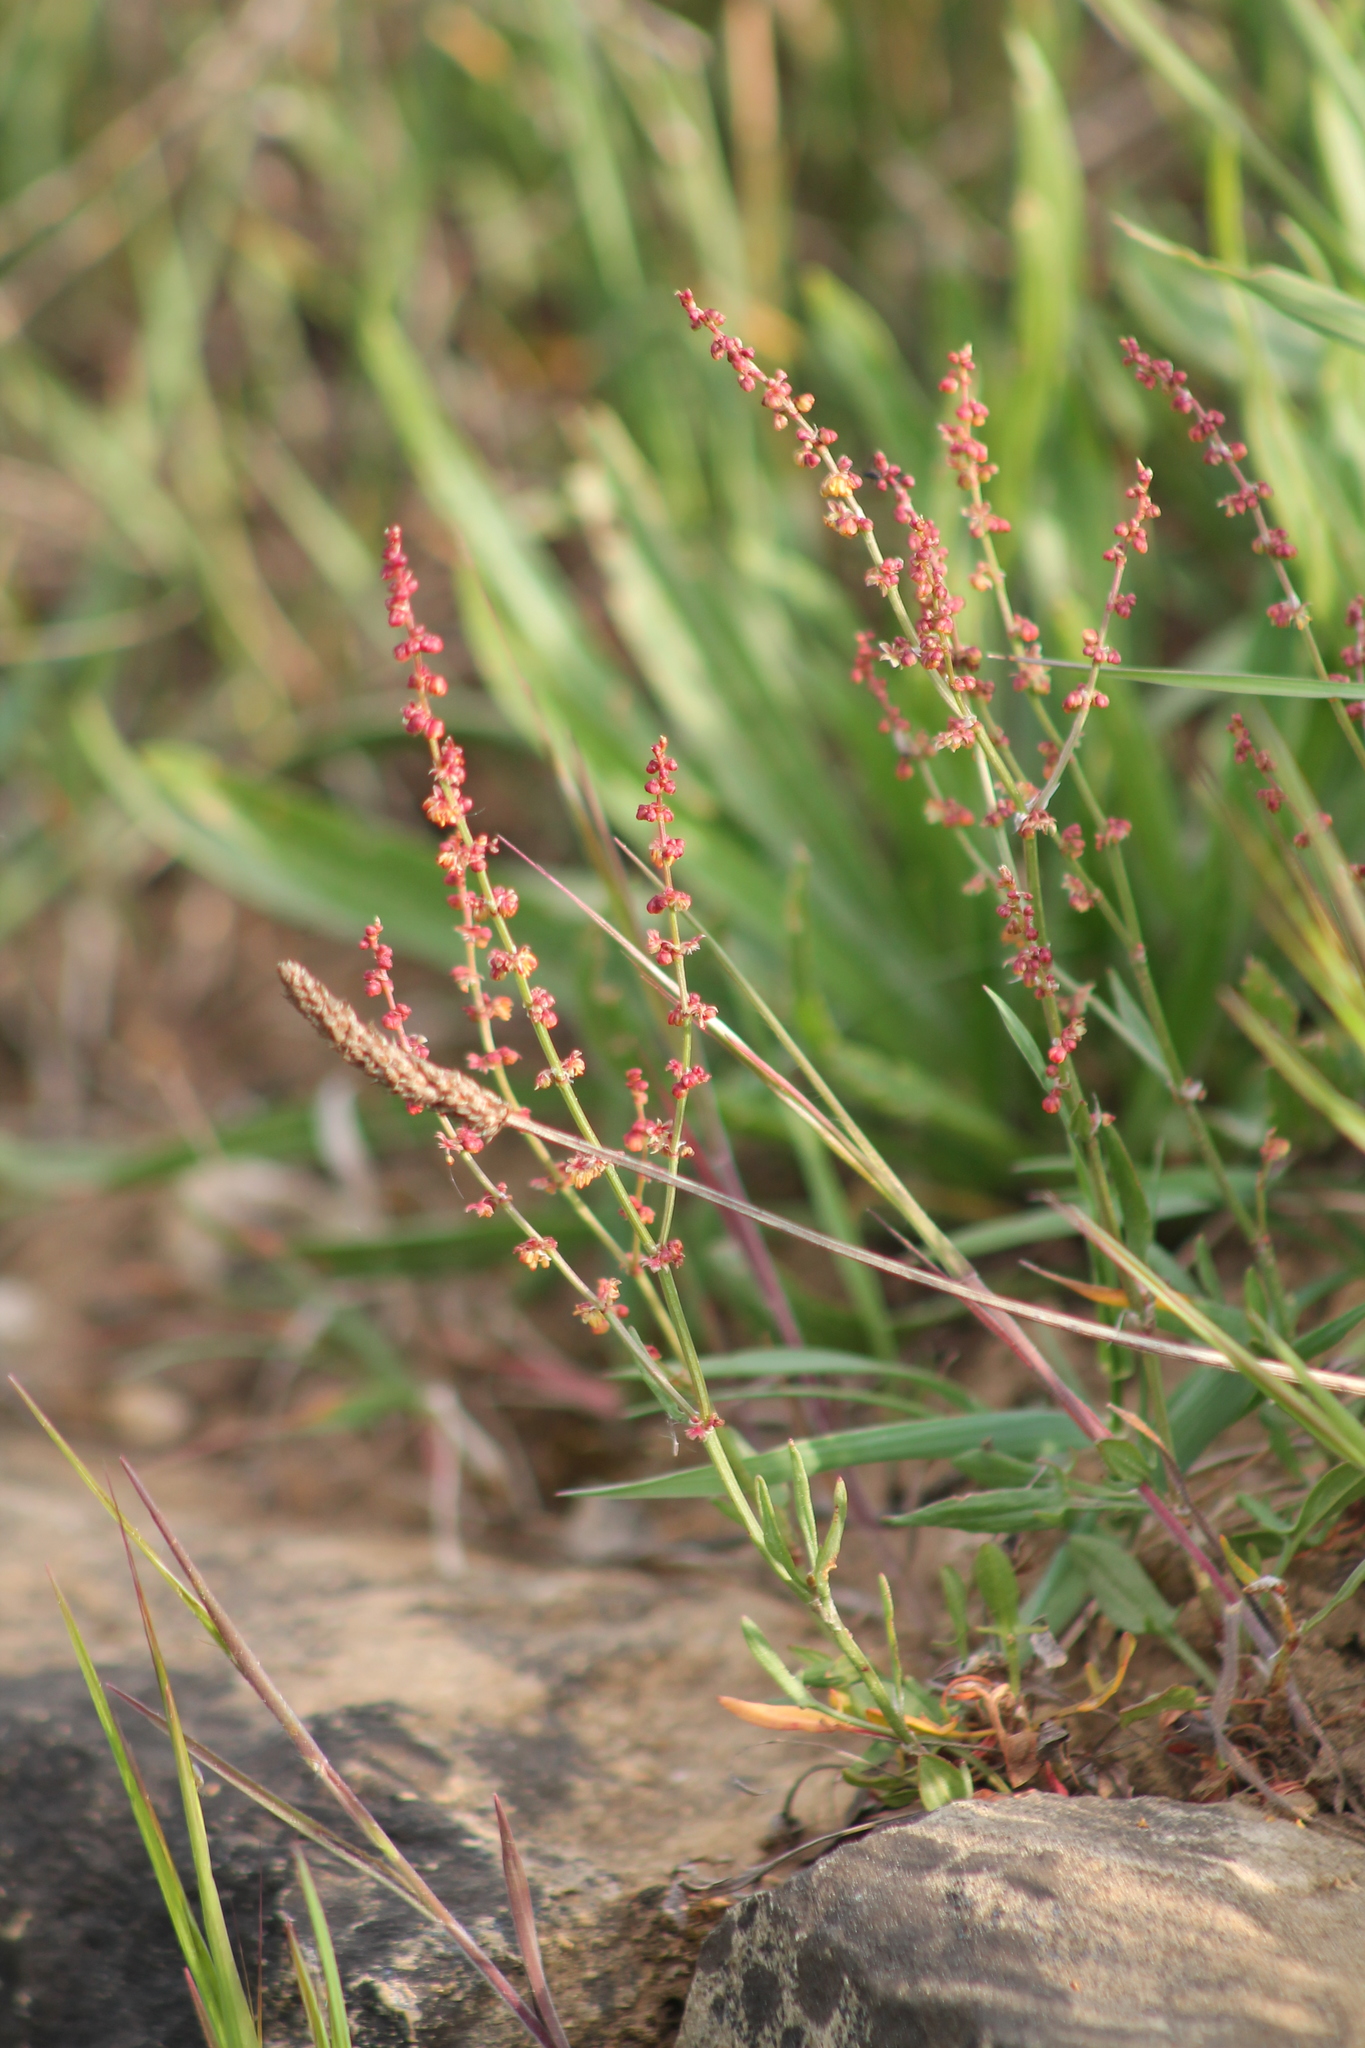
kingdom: Plantae
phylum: Tracheophyta
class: Magnoliopsida
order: Caryophyllales
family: Polygonaceae
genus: Rumex
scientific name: Rumex acetosella
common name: Common sheep sorrel
